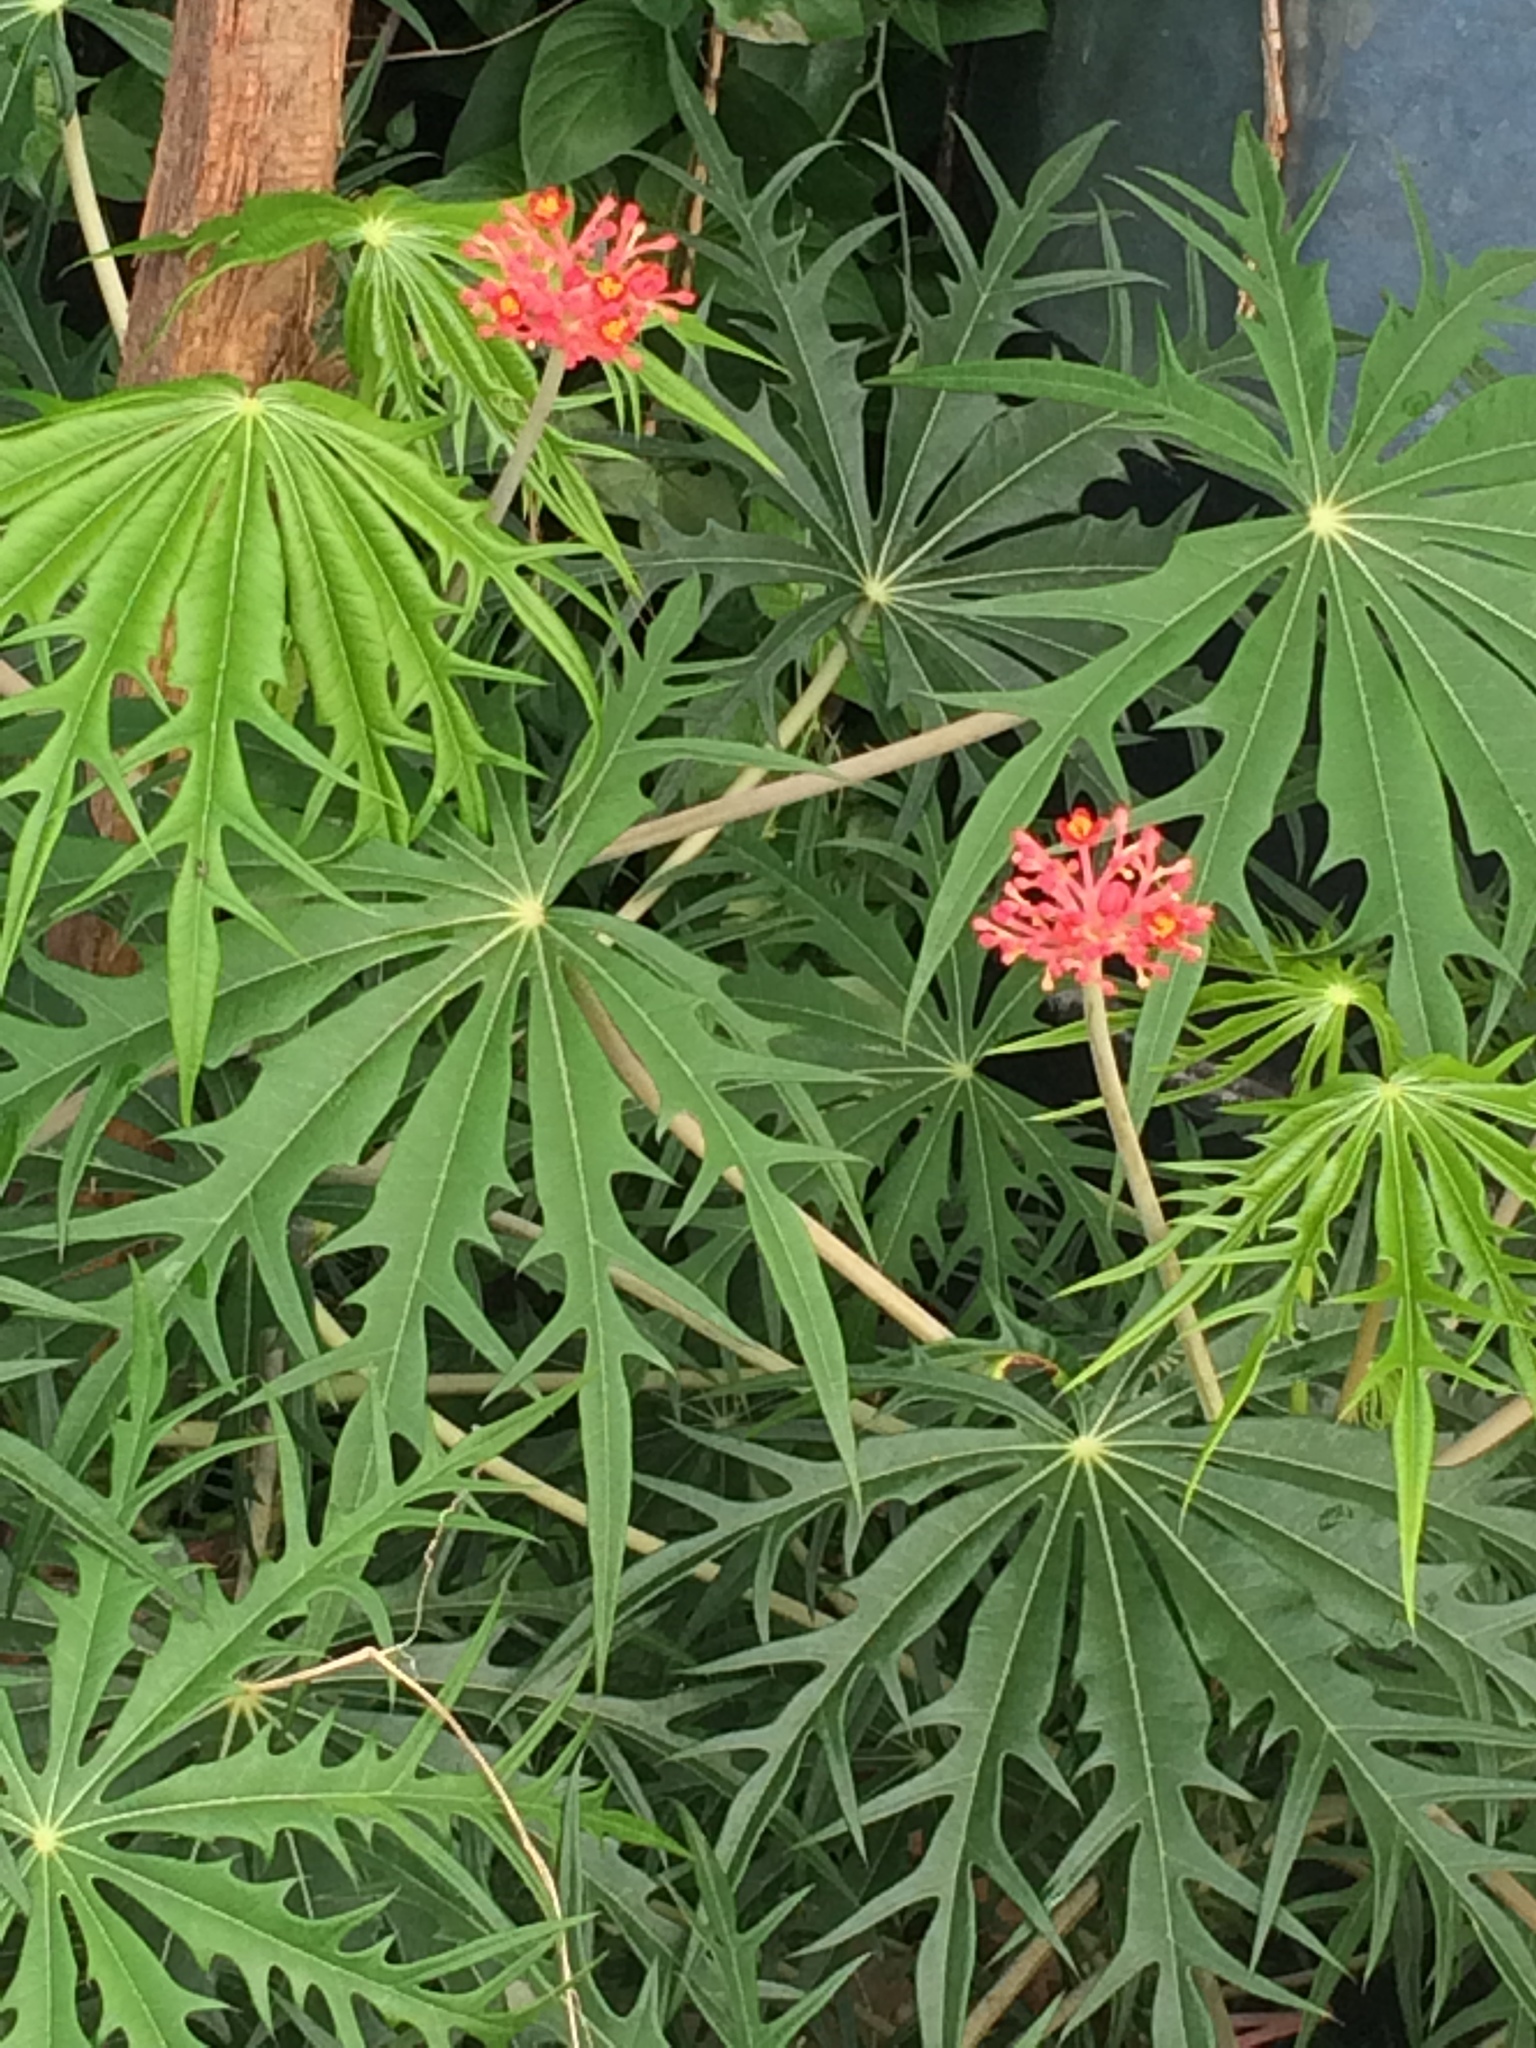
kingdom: Plantae
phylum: Tracheophyta
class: Magnoliopsida
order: Malpighiales
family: Euphorbiaceae
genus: Jatropha
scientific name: Jatropha multifida
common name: Coralbush
